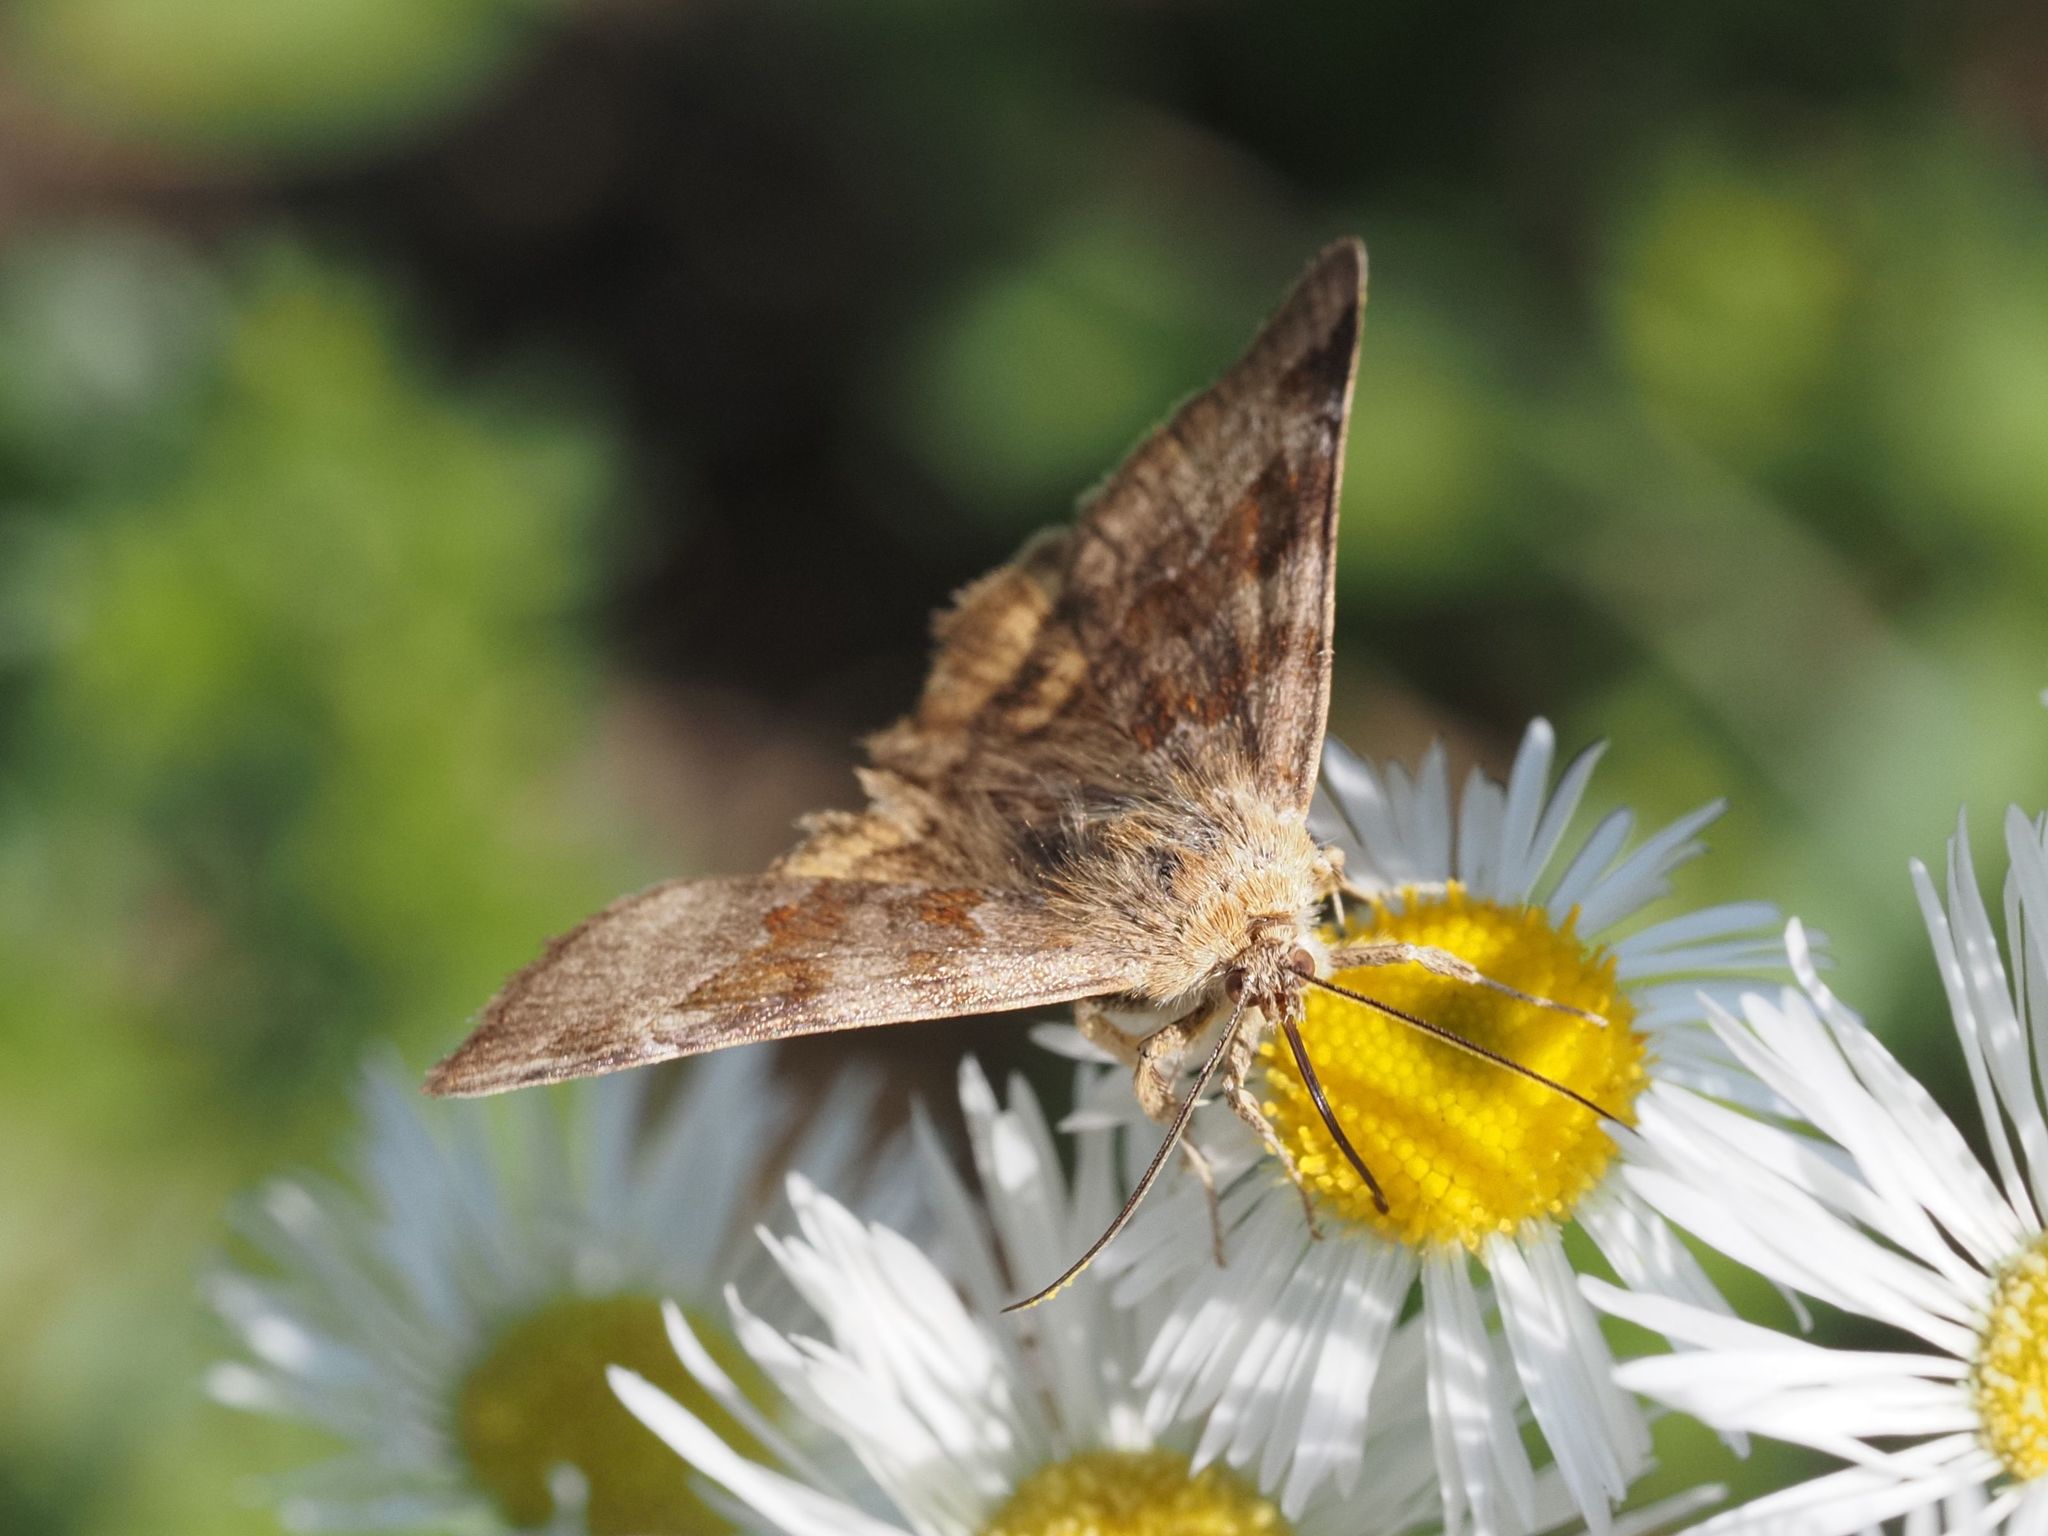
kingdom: Animalia
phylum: Arthropoda
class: Insecta
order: Lepidoptera
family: Erebidae
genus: Euclidia
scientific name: Euclidia glyphica
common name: Burnet companion
